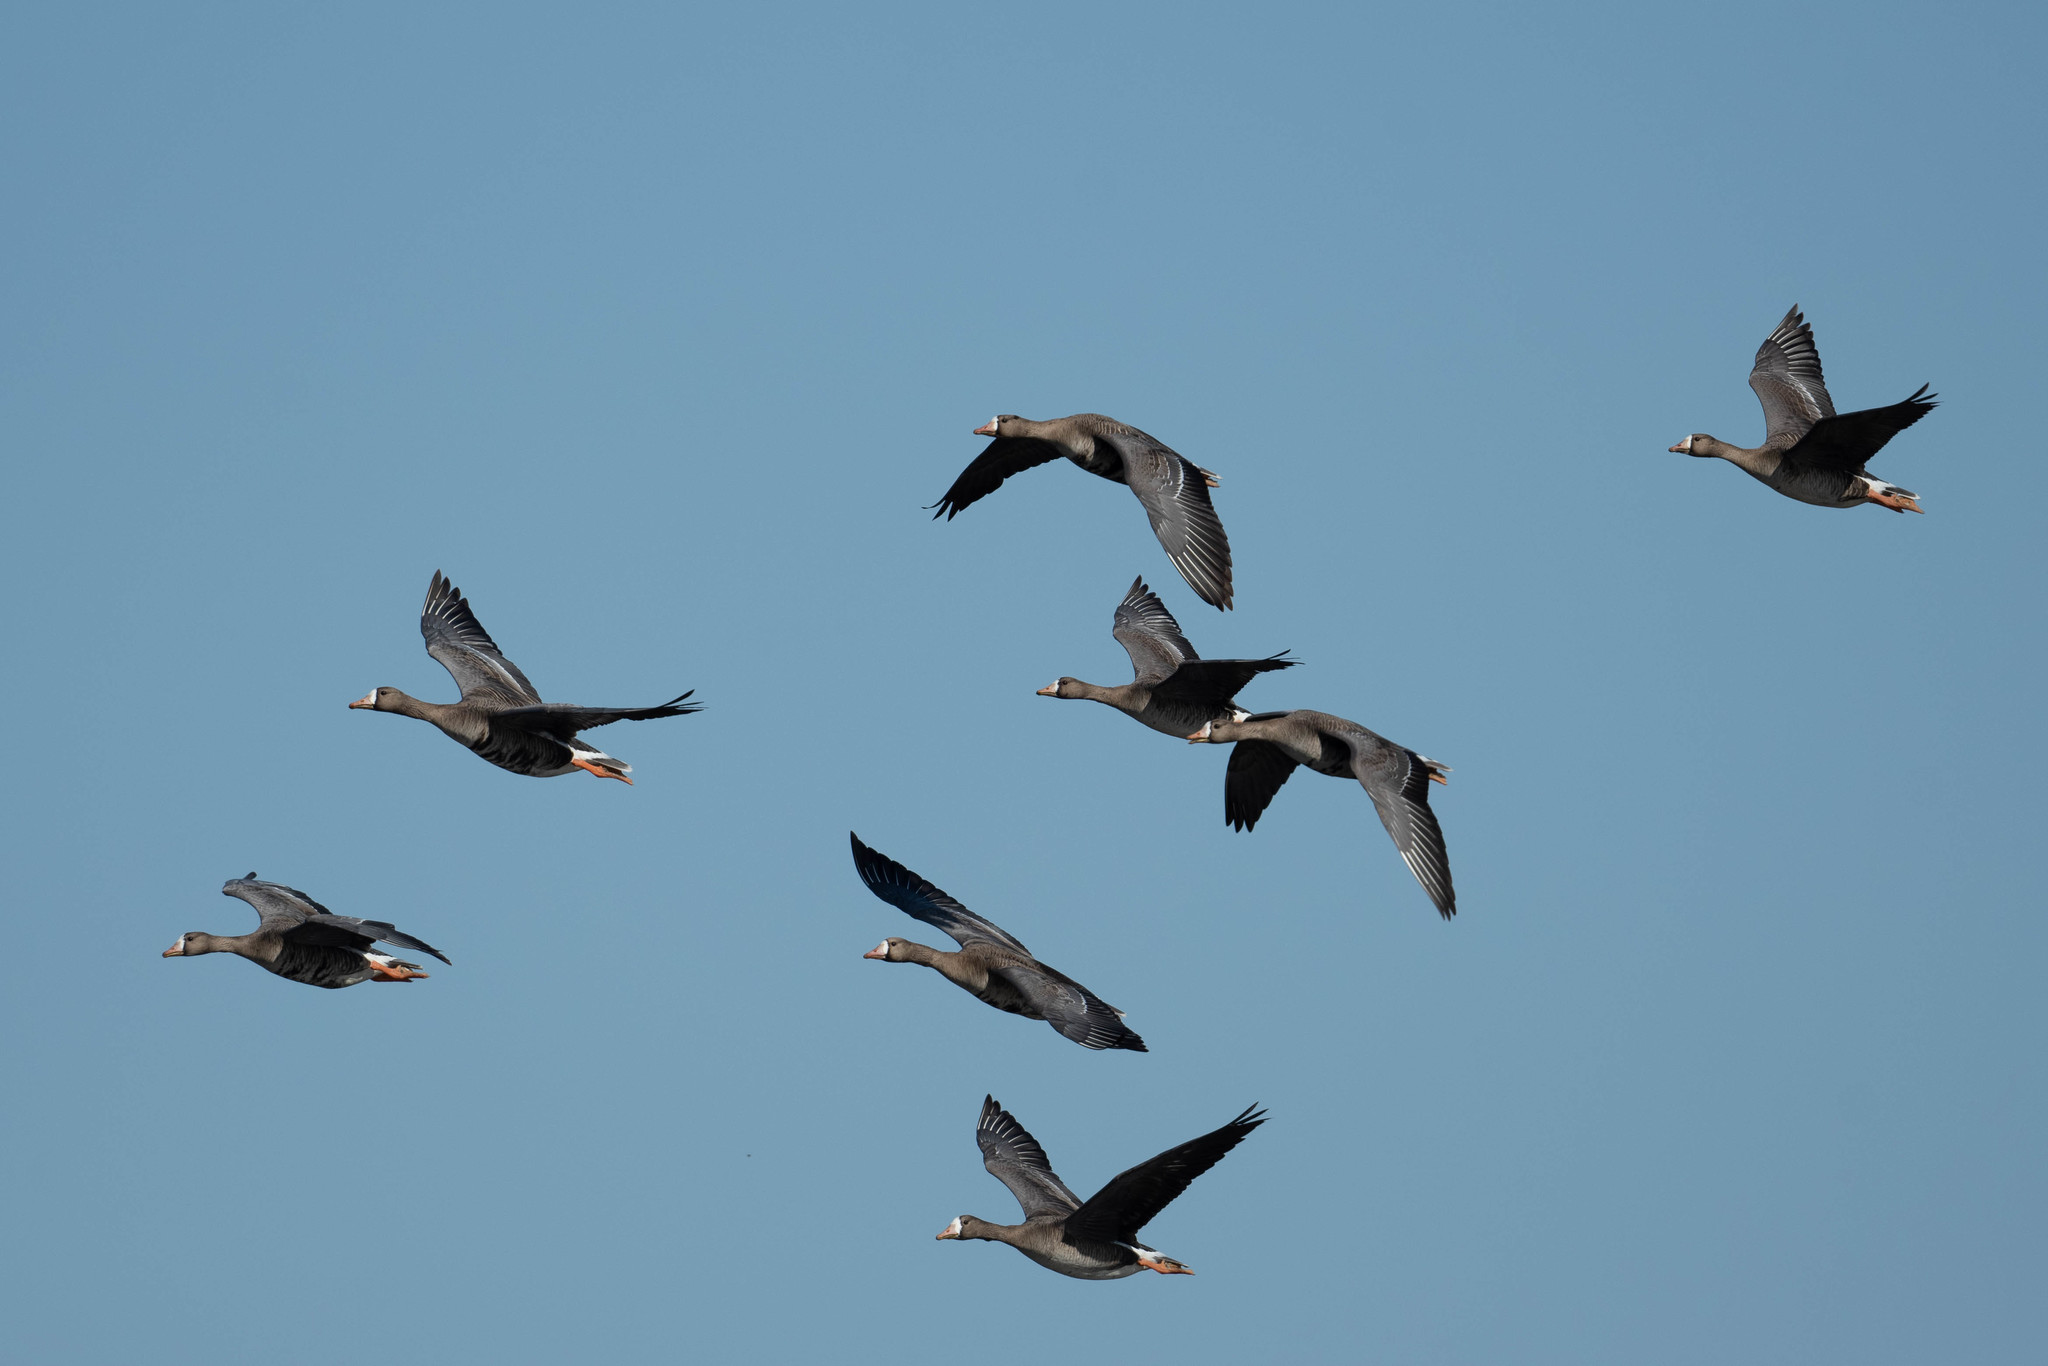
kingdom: Animalia
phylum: Chordata
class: Aves
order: Anseriformes
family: Anatidae
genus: Anser
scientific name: Anser albifrons
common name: Greater white-fronted goose
